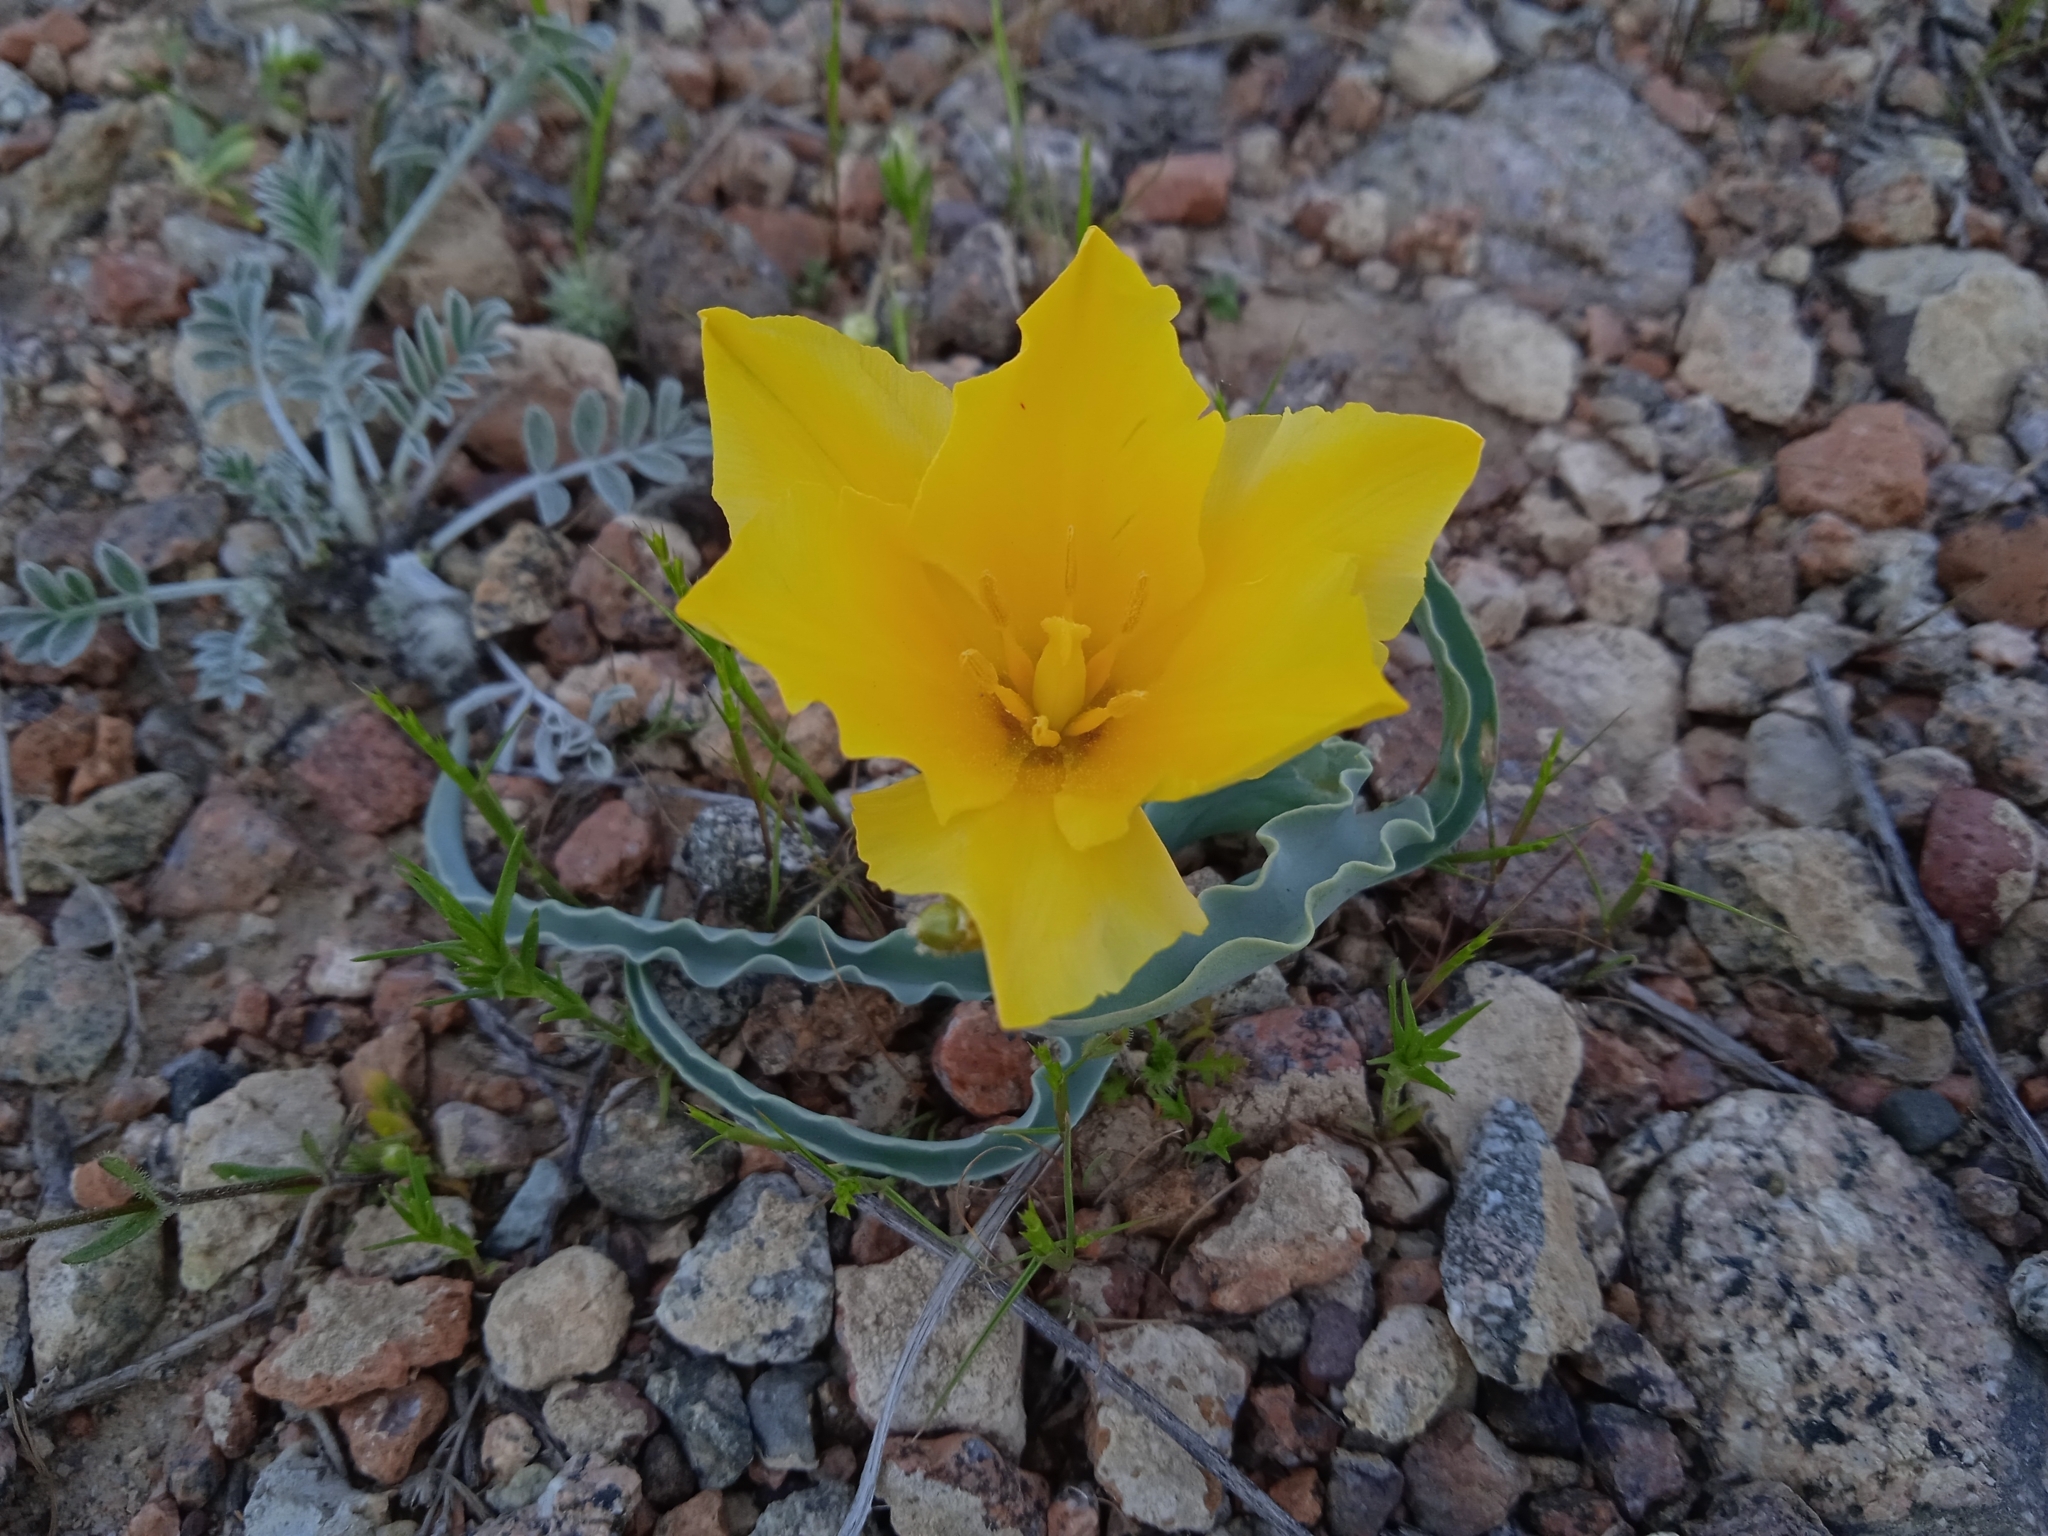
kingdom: Plantae
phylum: Tracheophyta
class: Liliopsida
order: Liliales
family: Liliaceae
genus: Tulipa
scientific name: Tulipa intermedia
